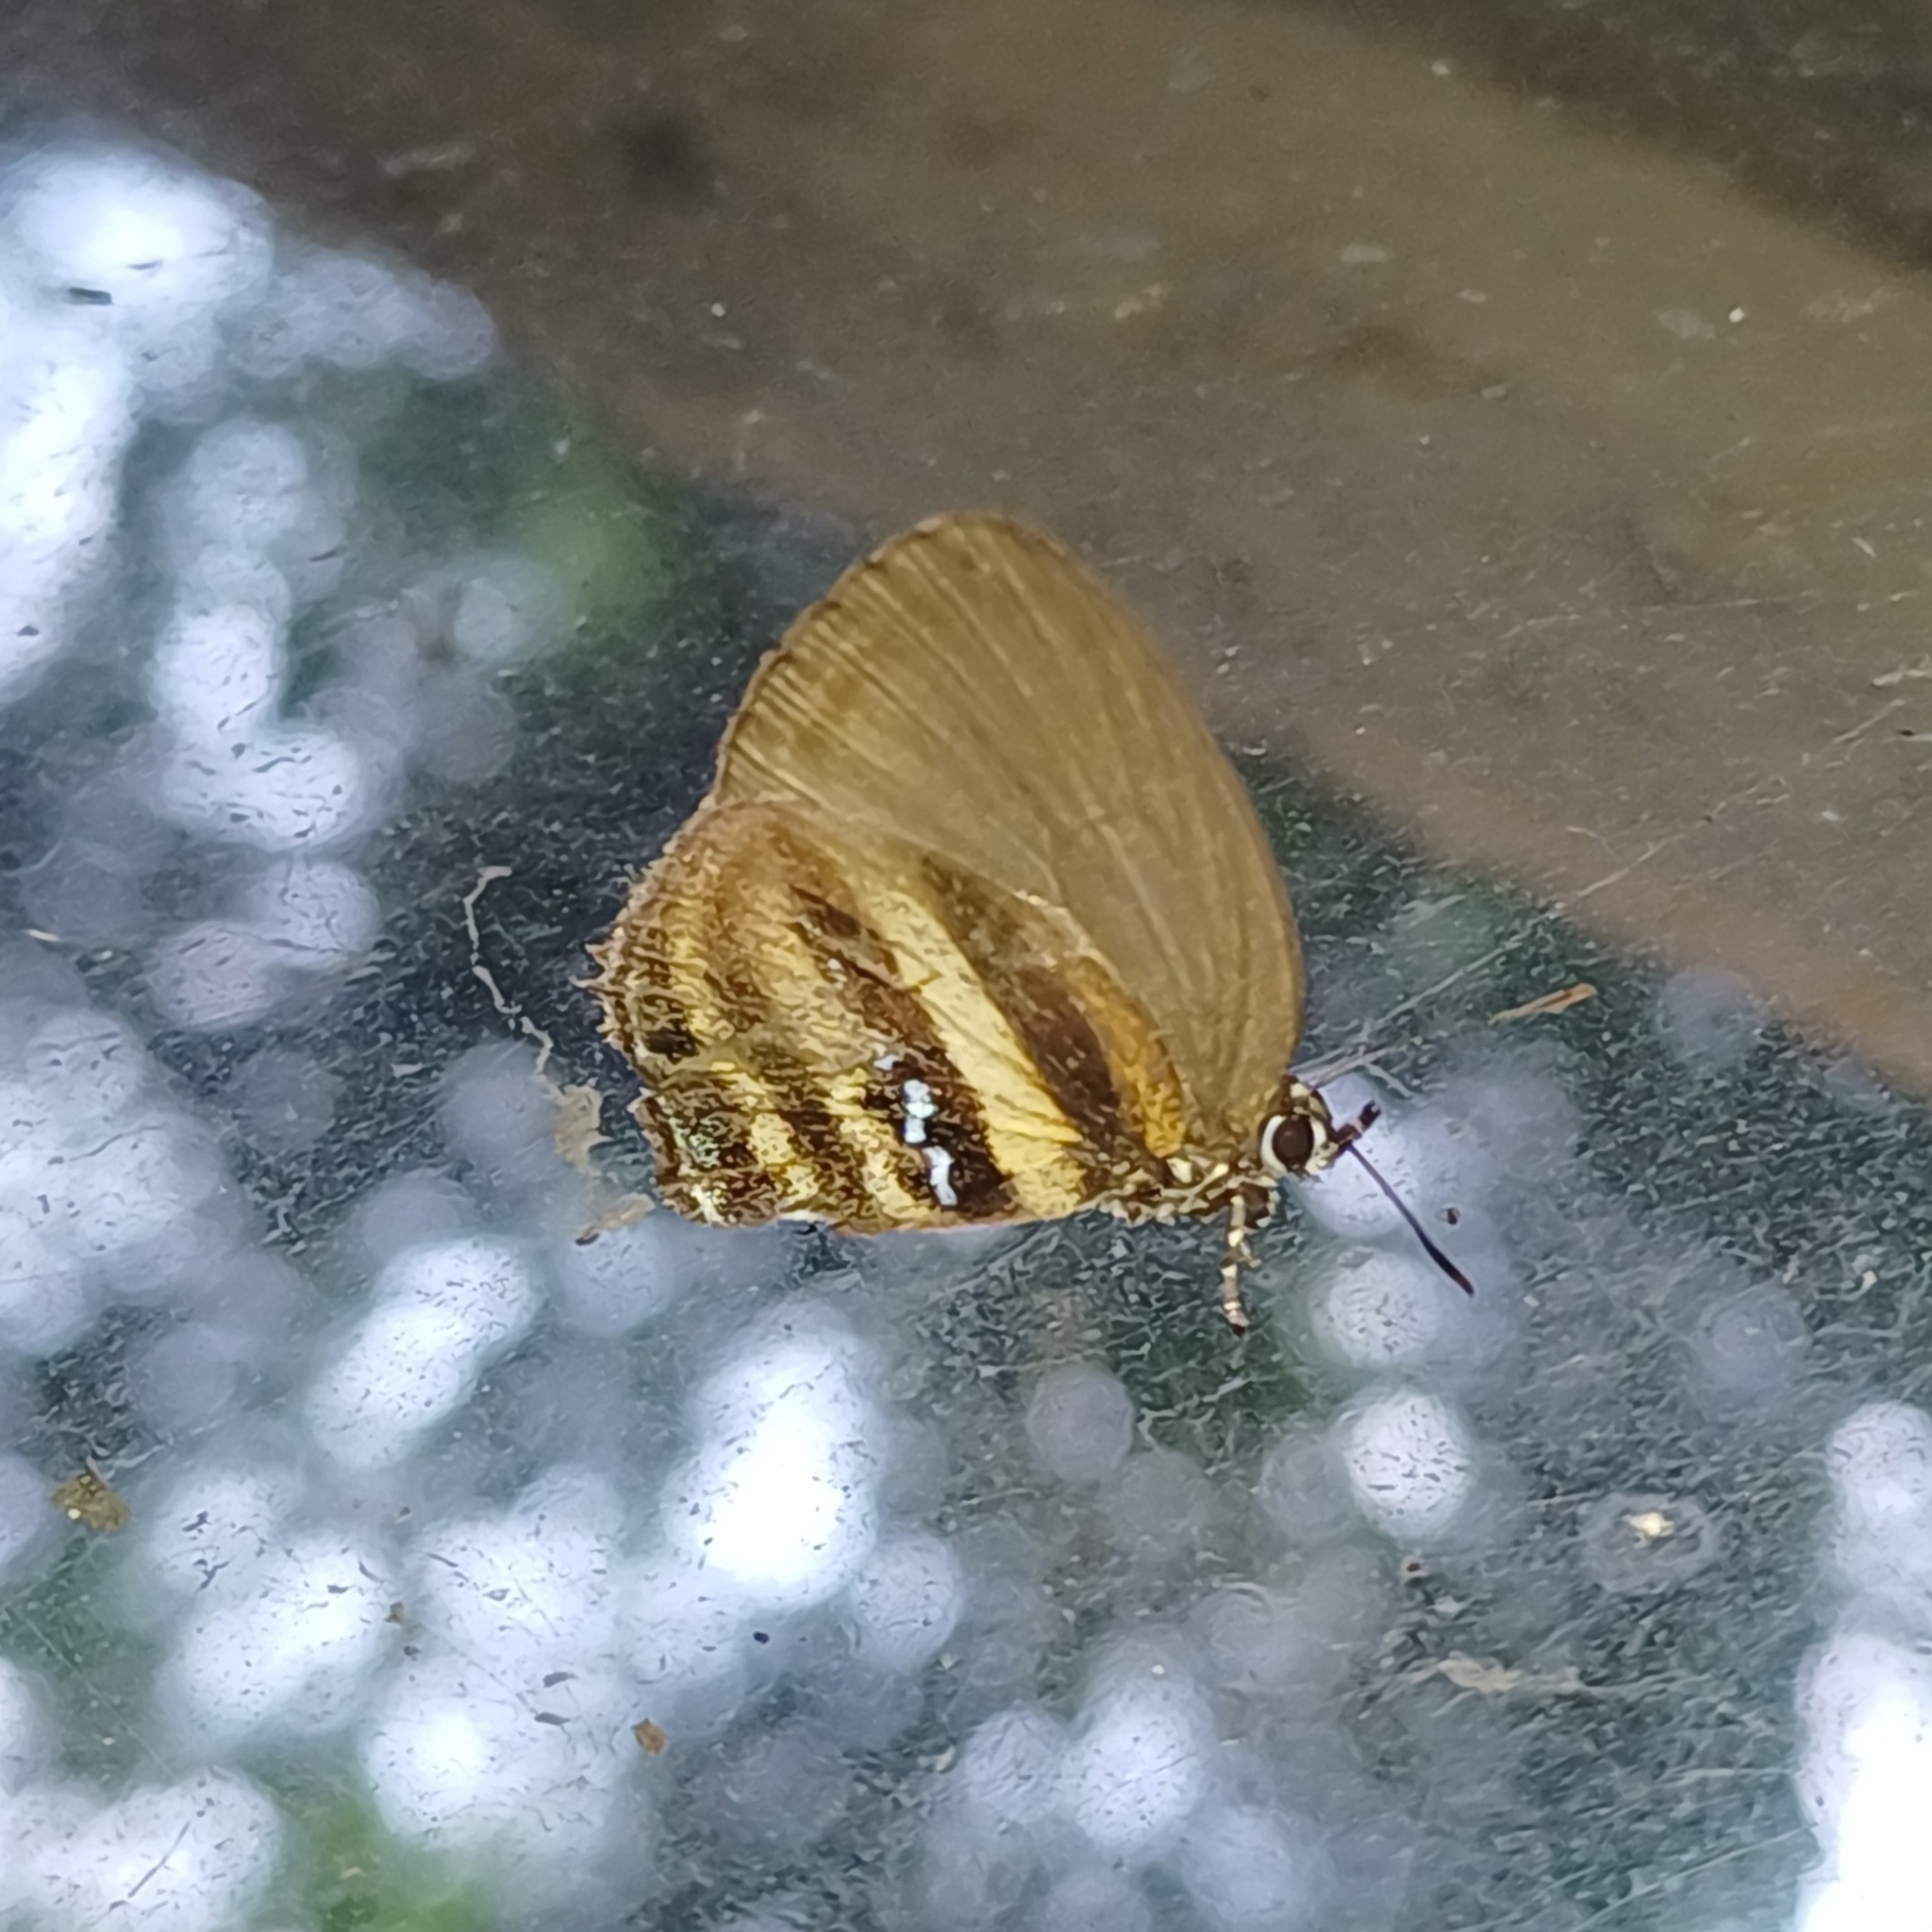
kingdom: Animalia
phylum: Arthropoda
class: Insecta
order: Lepidoptera
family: Lycaenidae
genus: Thestius
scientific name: Thestius
